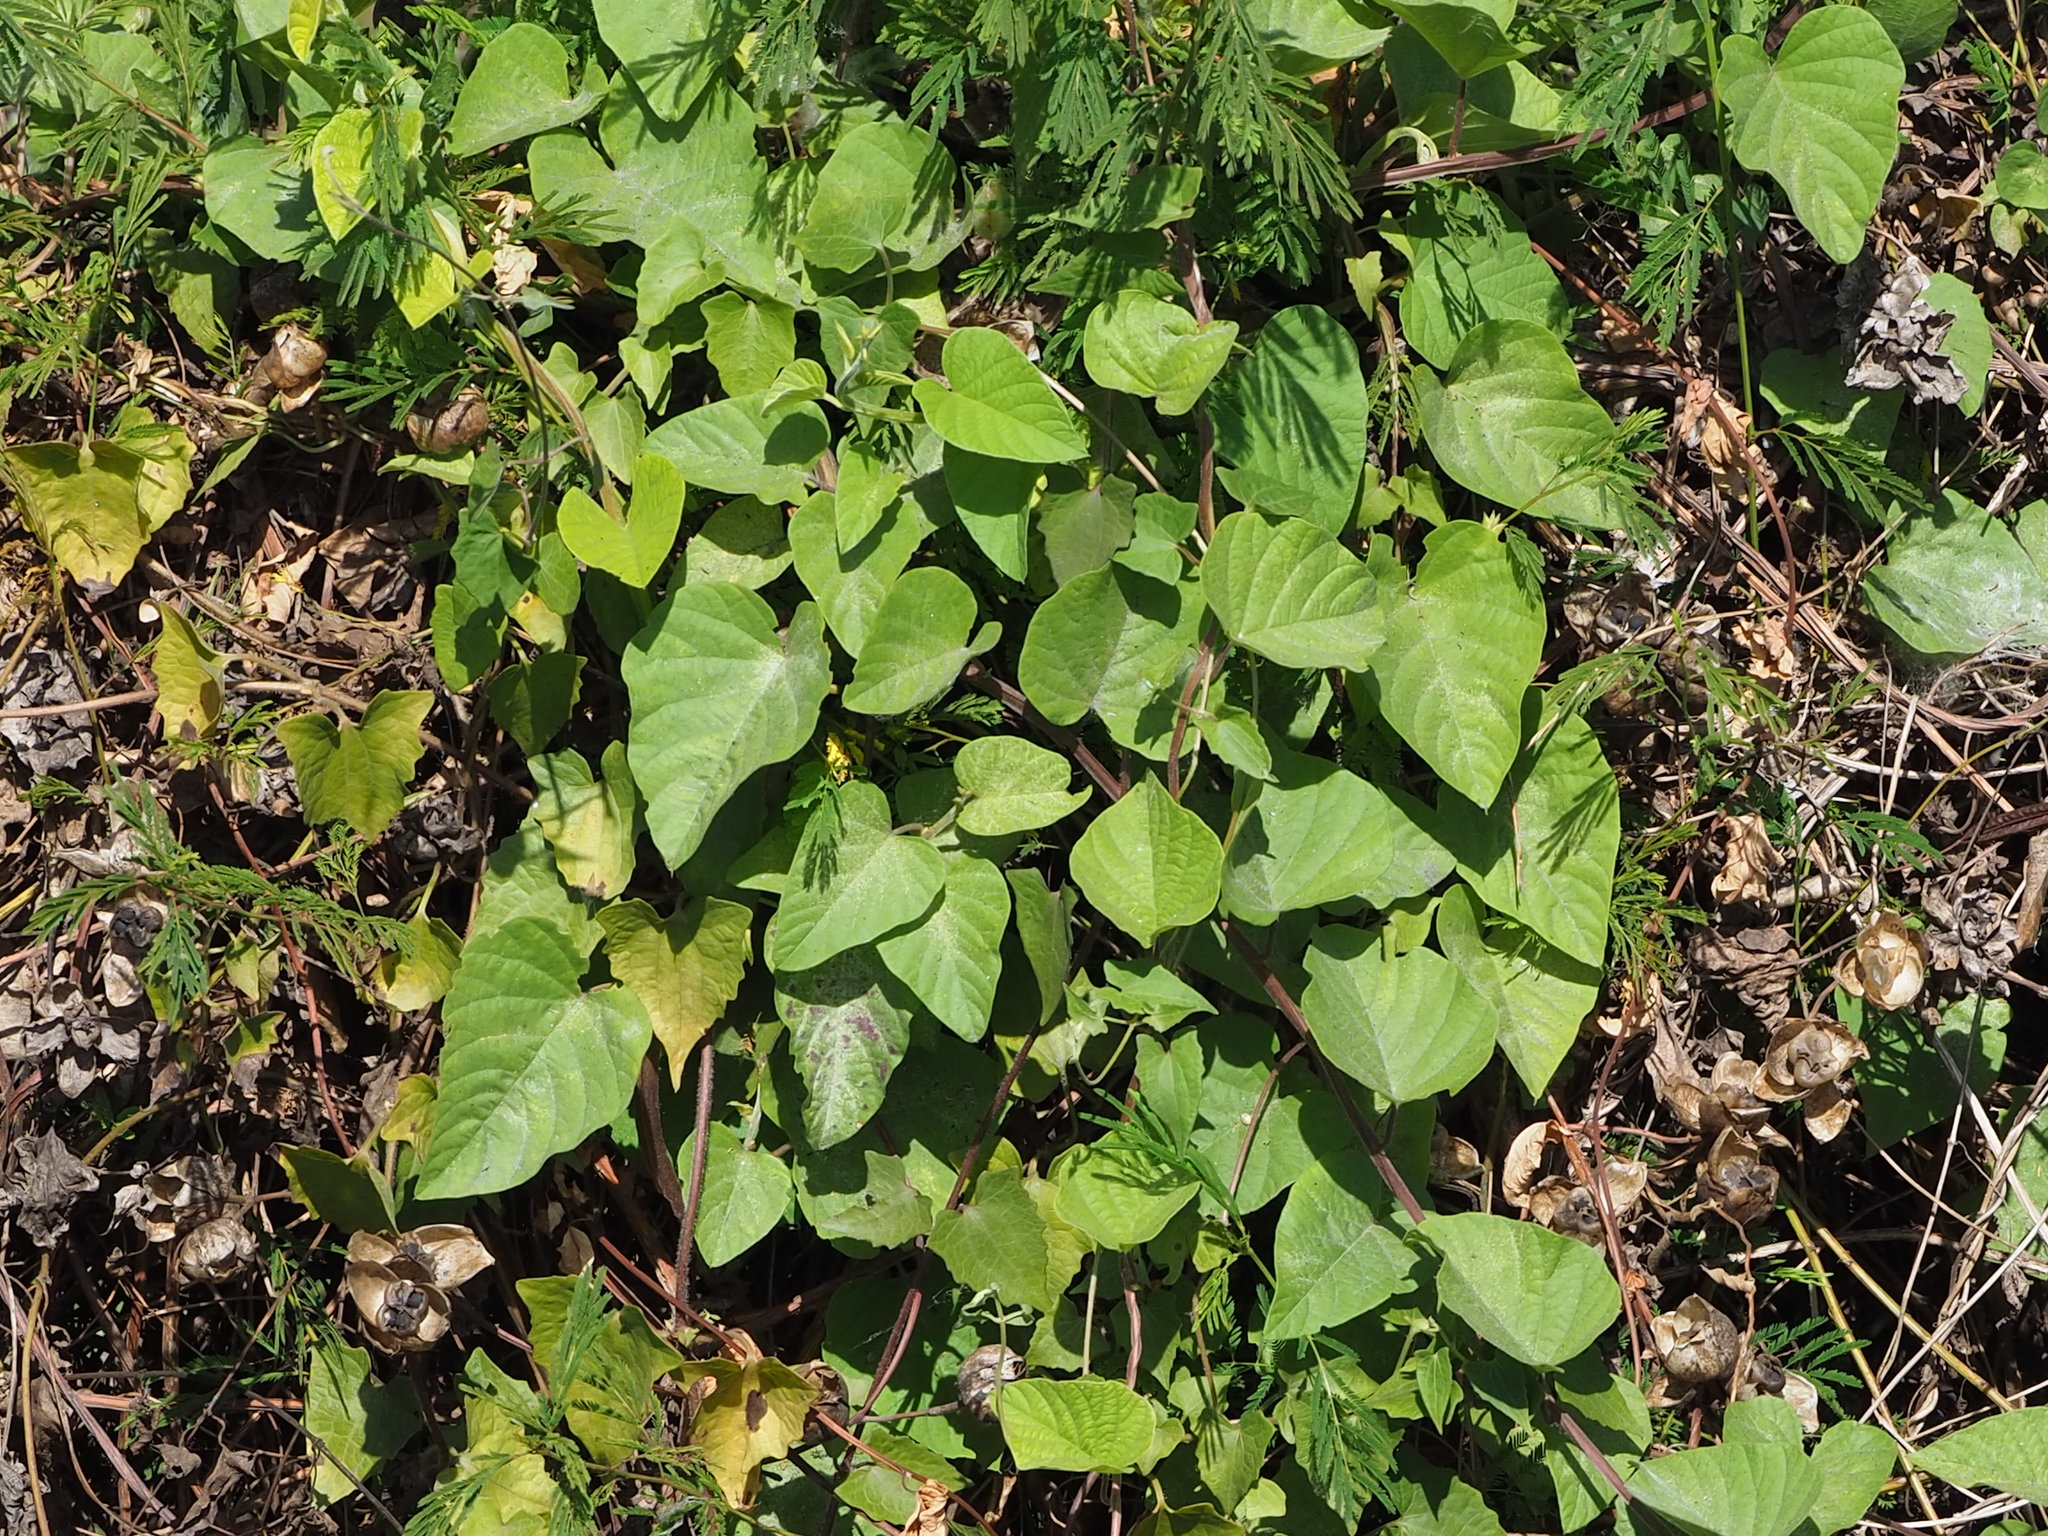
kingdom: Plantae
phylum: Tracheophyta
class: Magnoliopsida
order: Solanales
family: Convolvulaceae
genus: Operculina
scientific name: Operculina turpethum
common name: Transparent wood-rose
